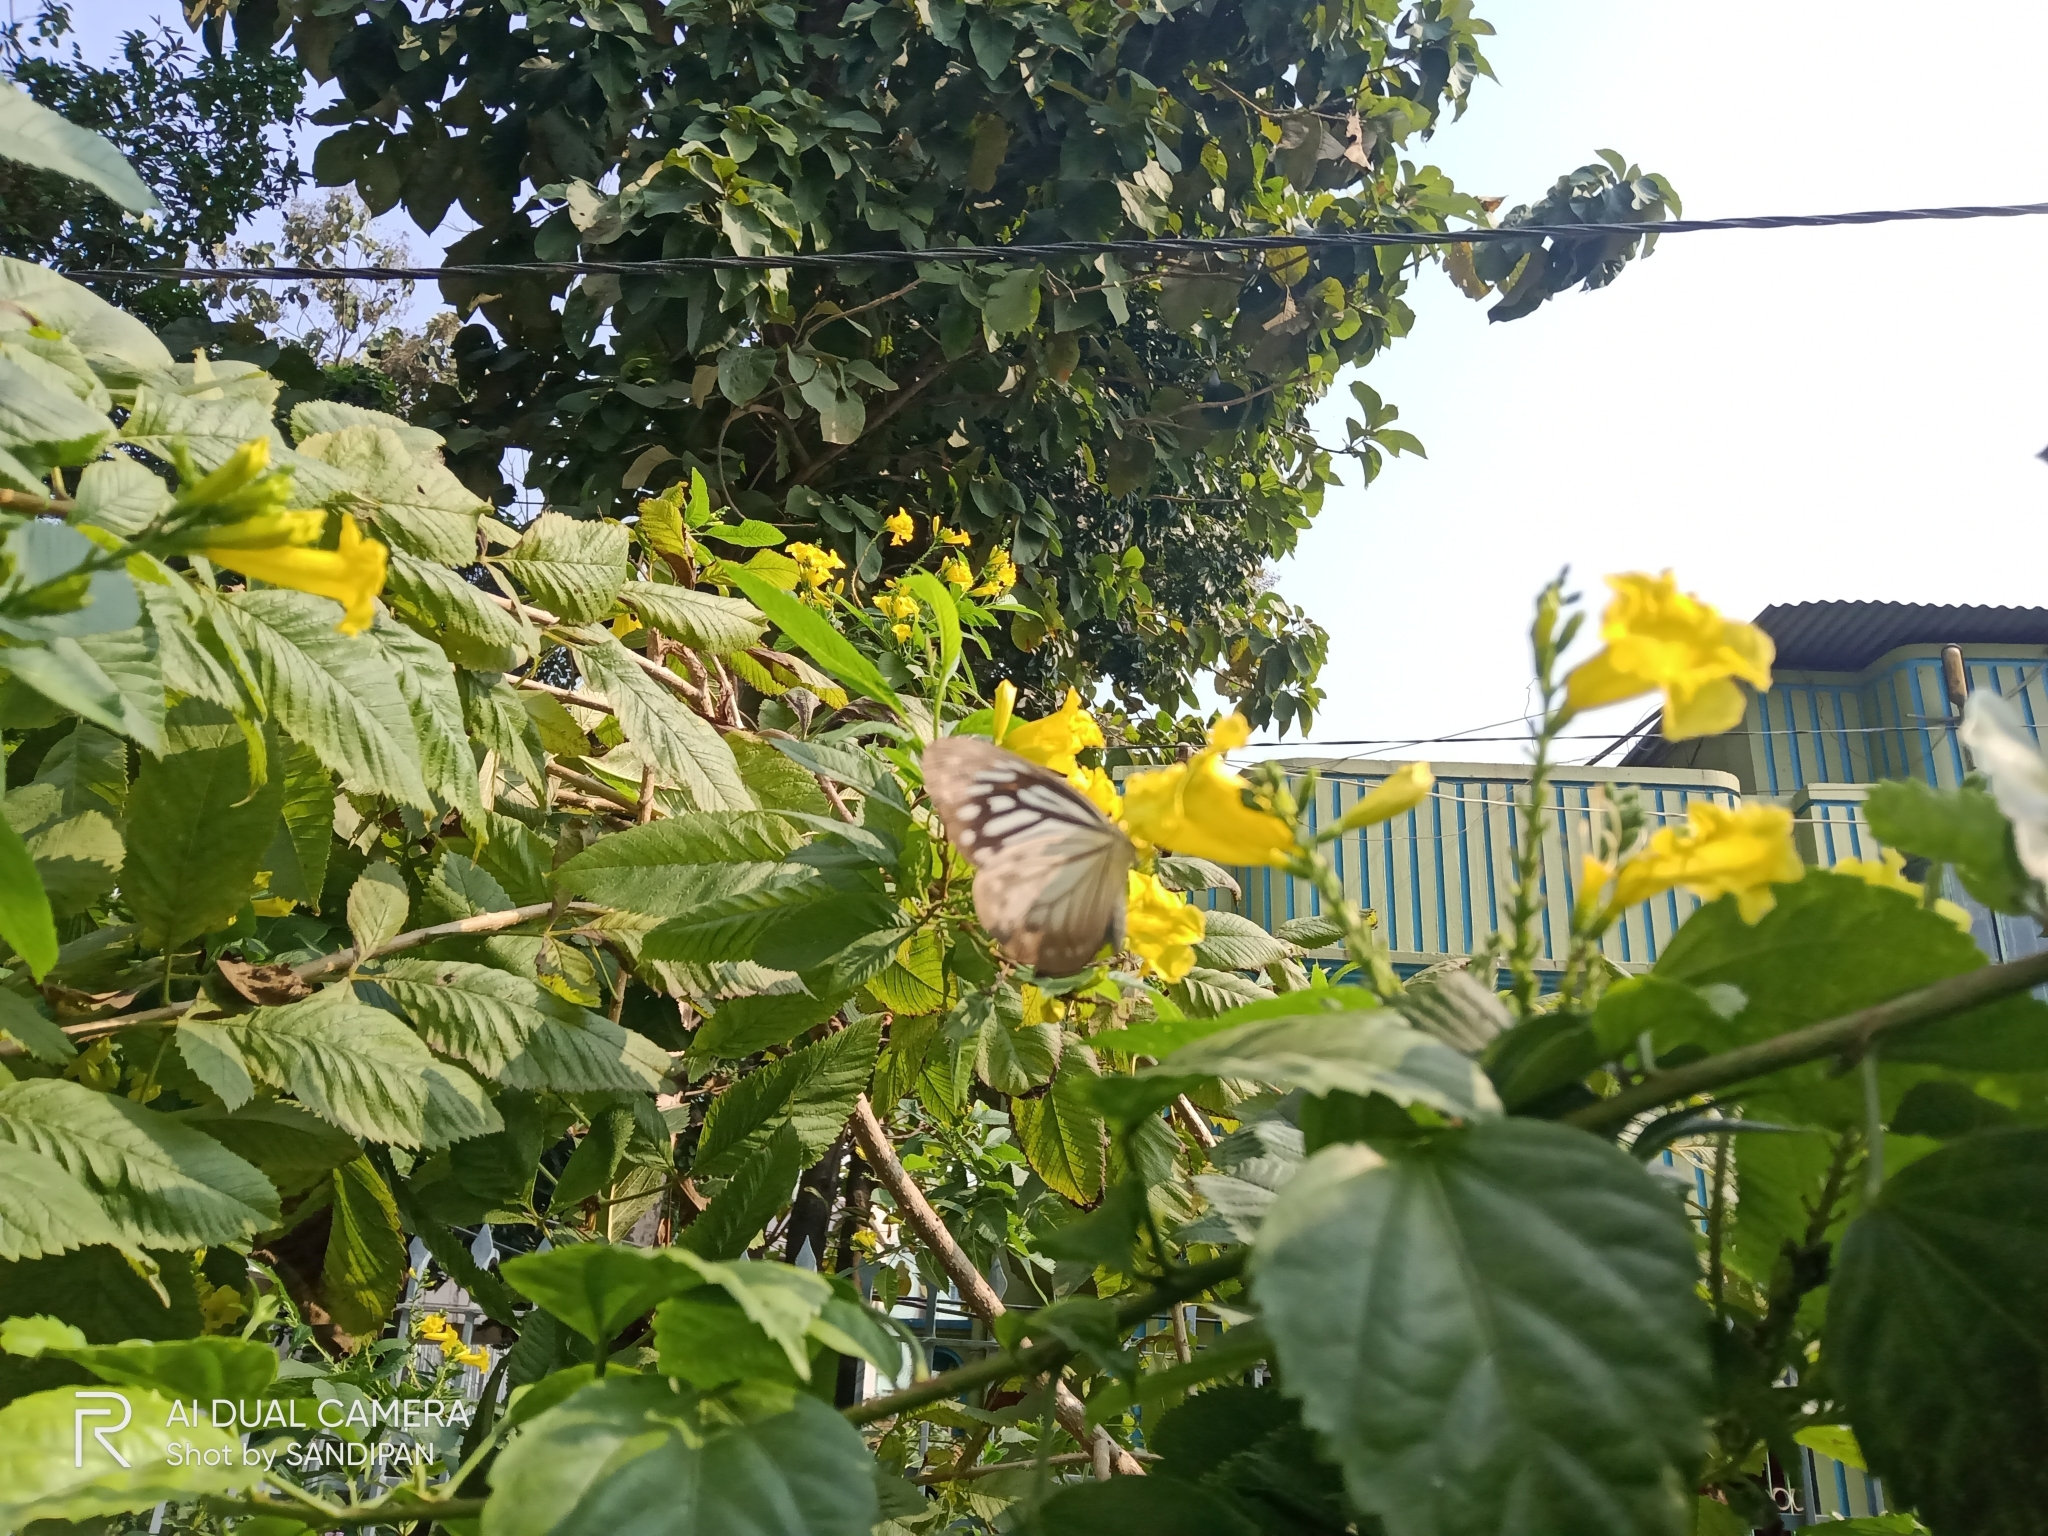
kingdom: Animalia
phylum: Arthropoda
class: Insecta
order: Lepidoptera
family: Pieridae
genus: Pareronia
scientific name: Pareronia hippia
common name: Indian wanderer
